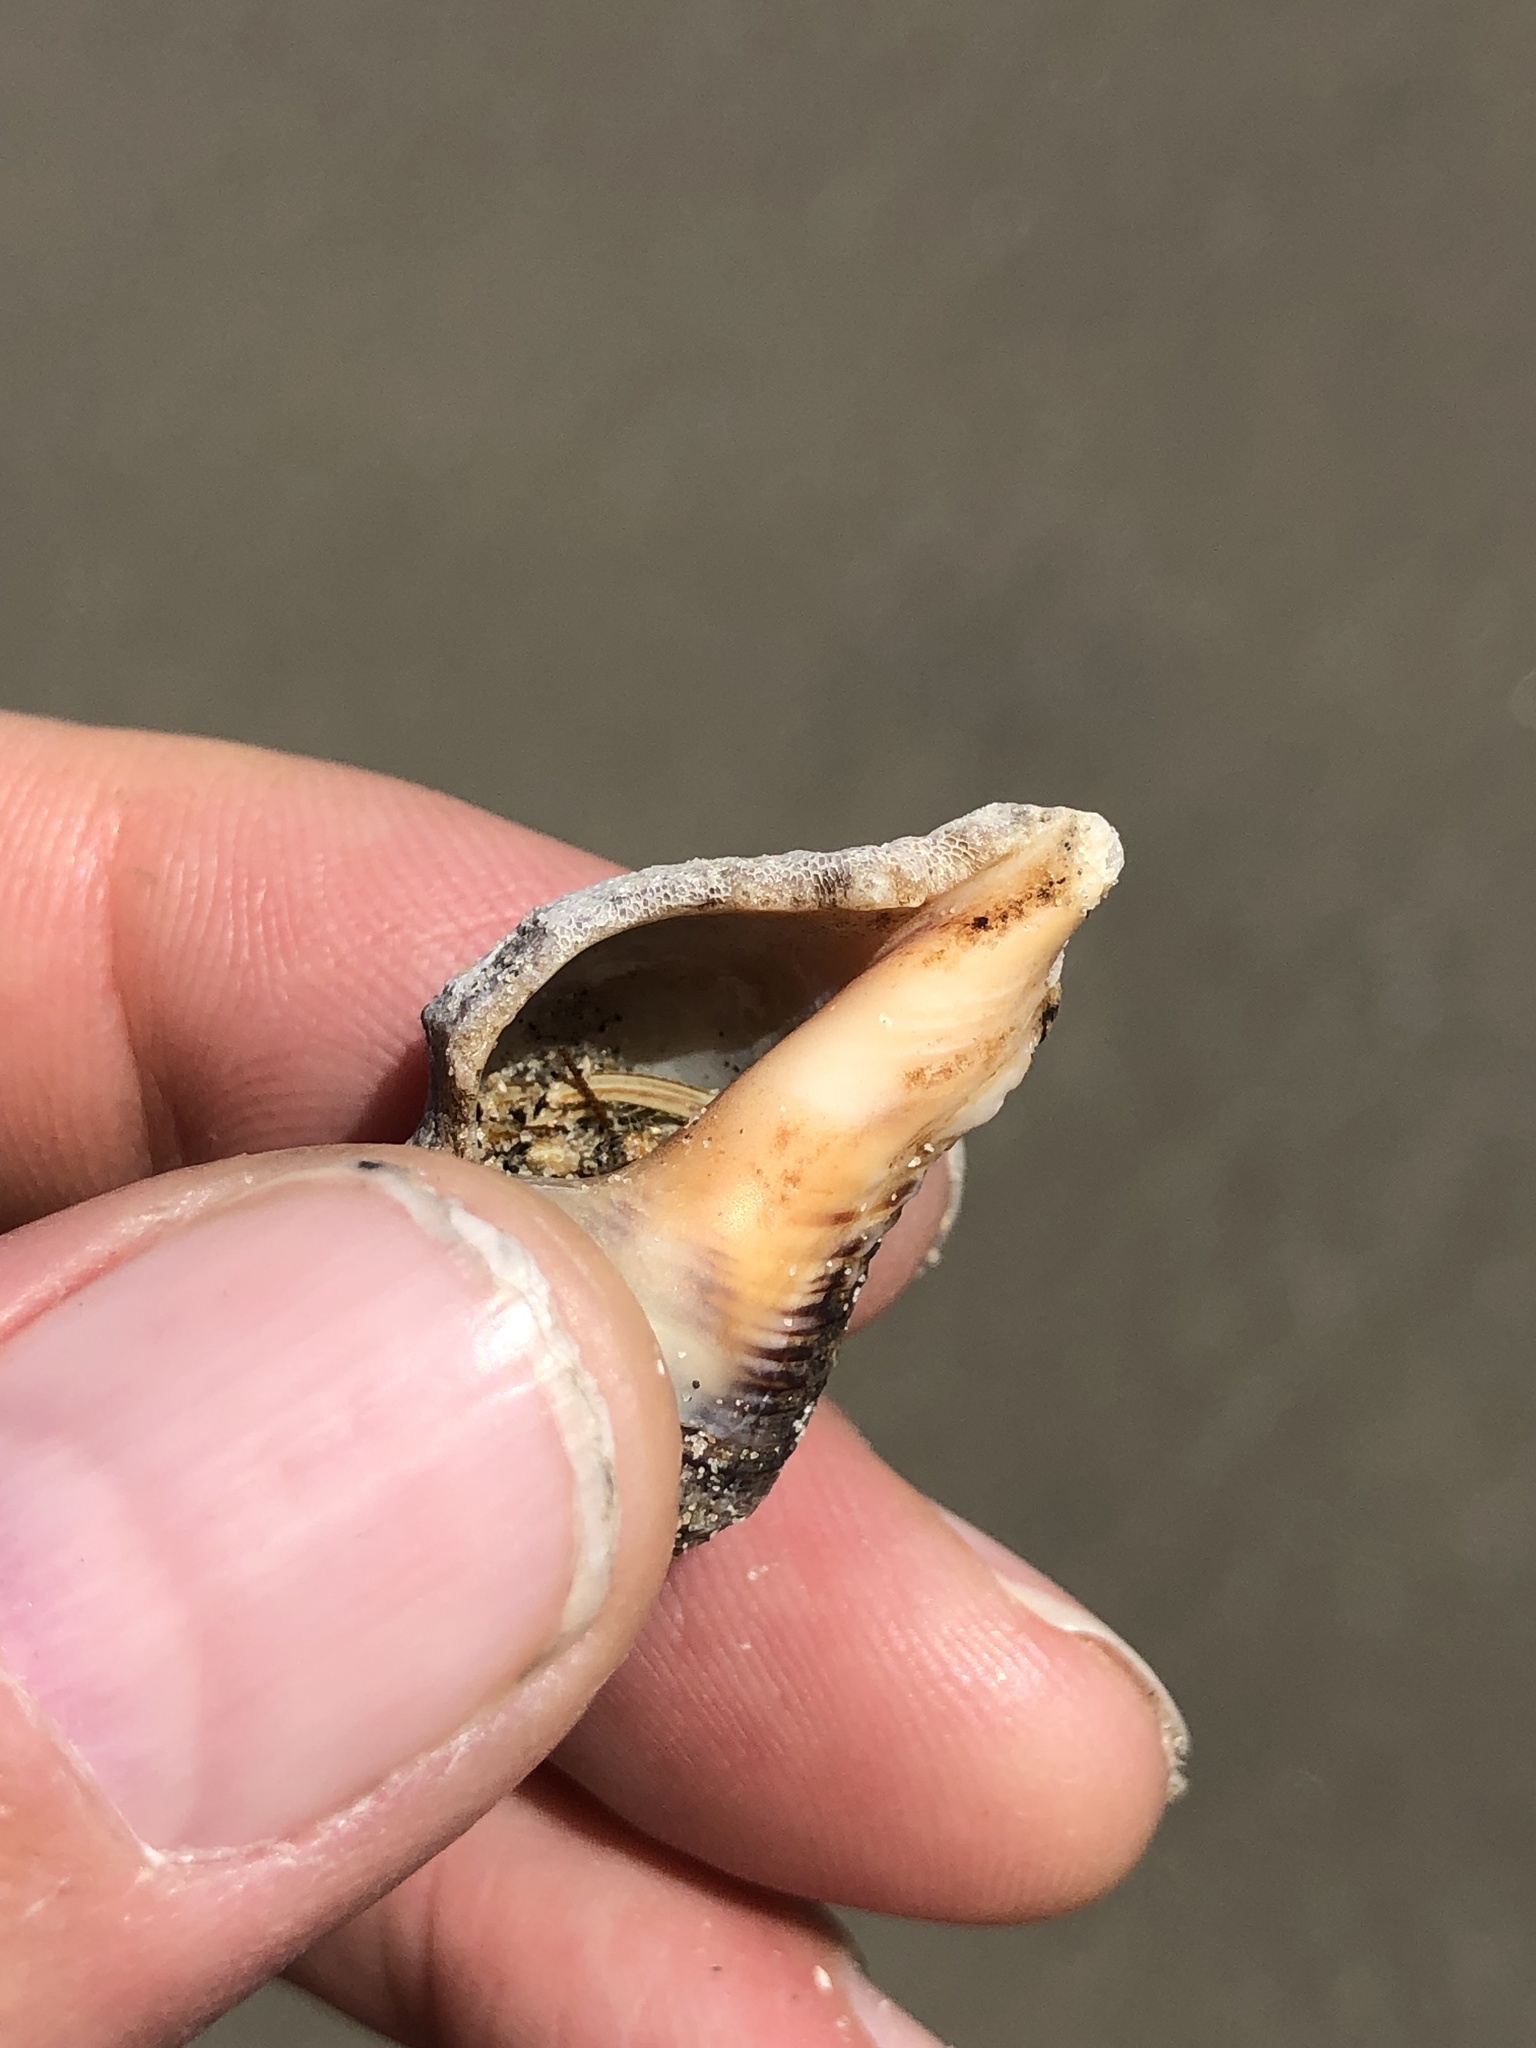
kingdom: Animalia
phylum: Arthropoda
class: Malacostraca
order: Decapoda
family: Diogenidae
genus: Clibanarius
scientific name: Clibanarius vittatus
